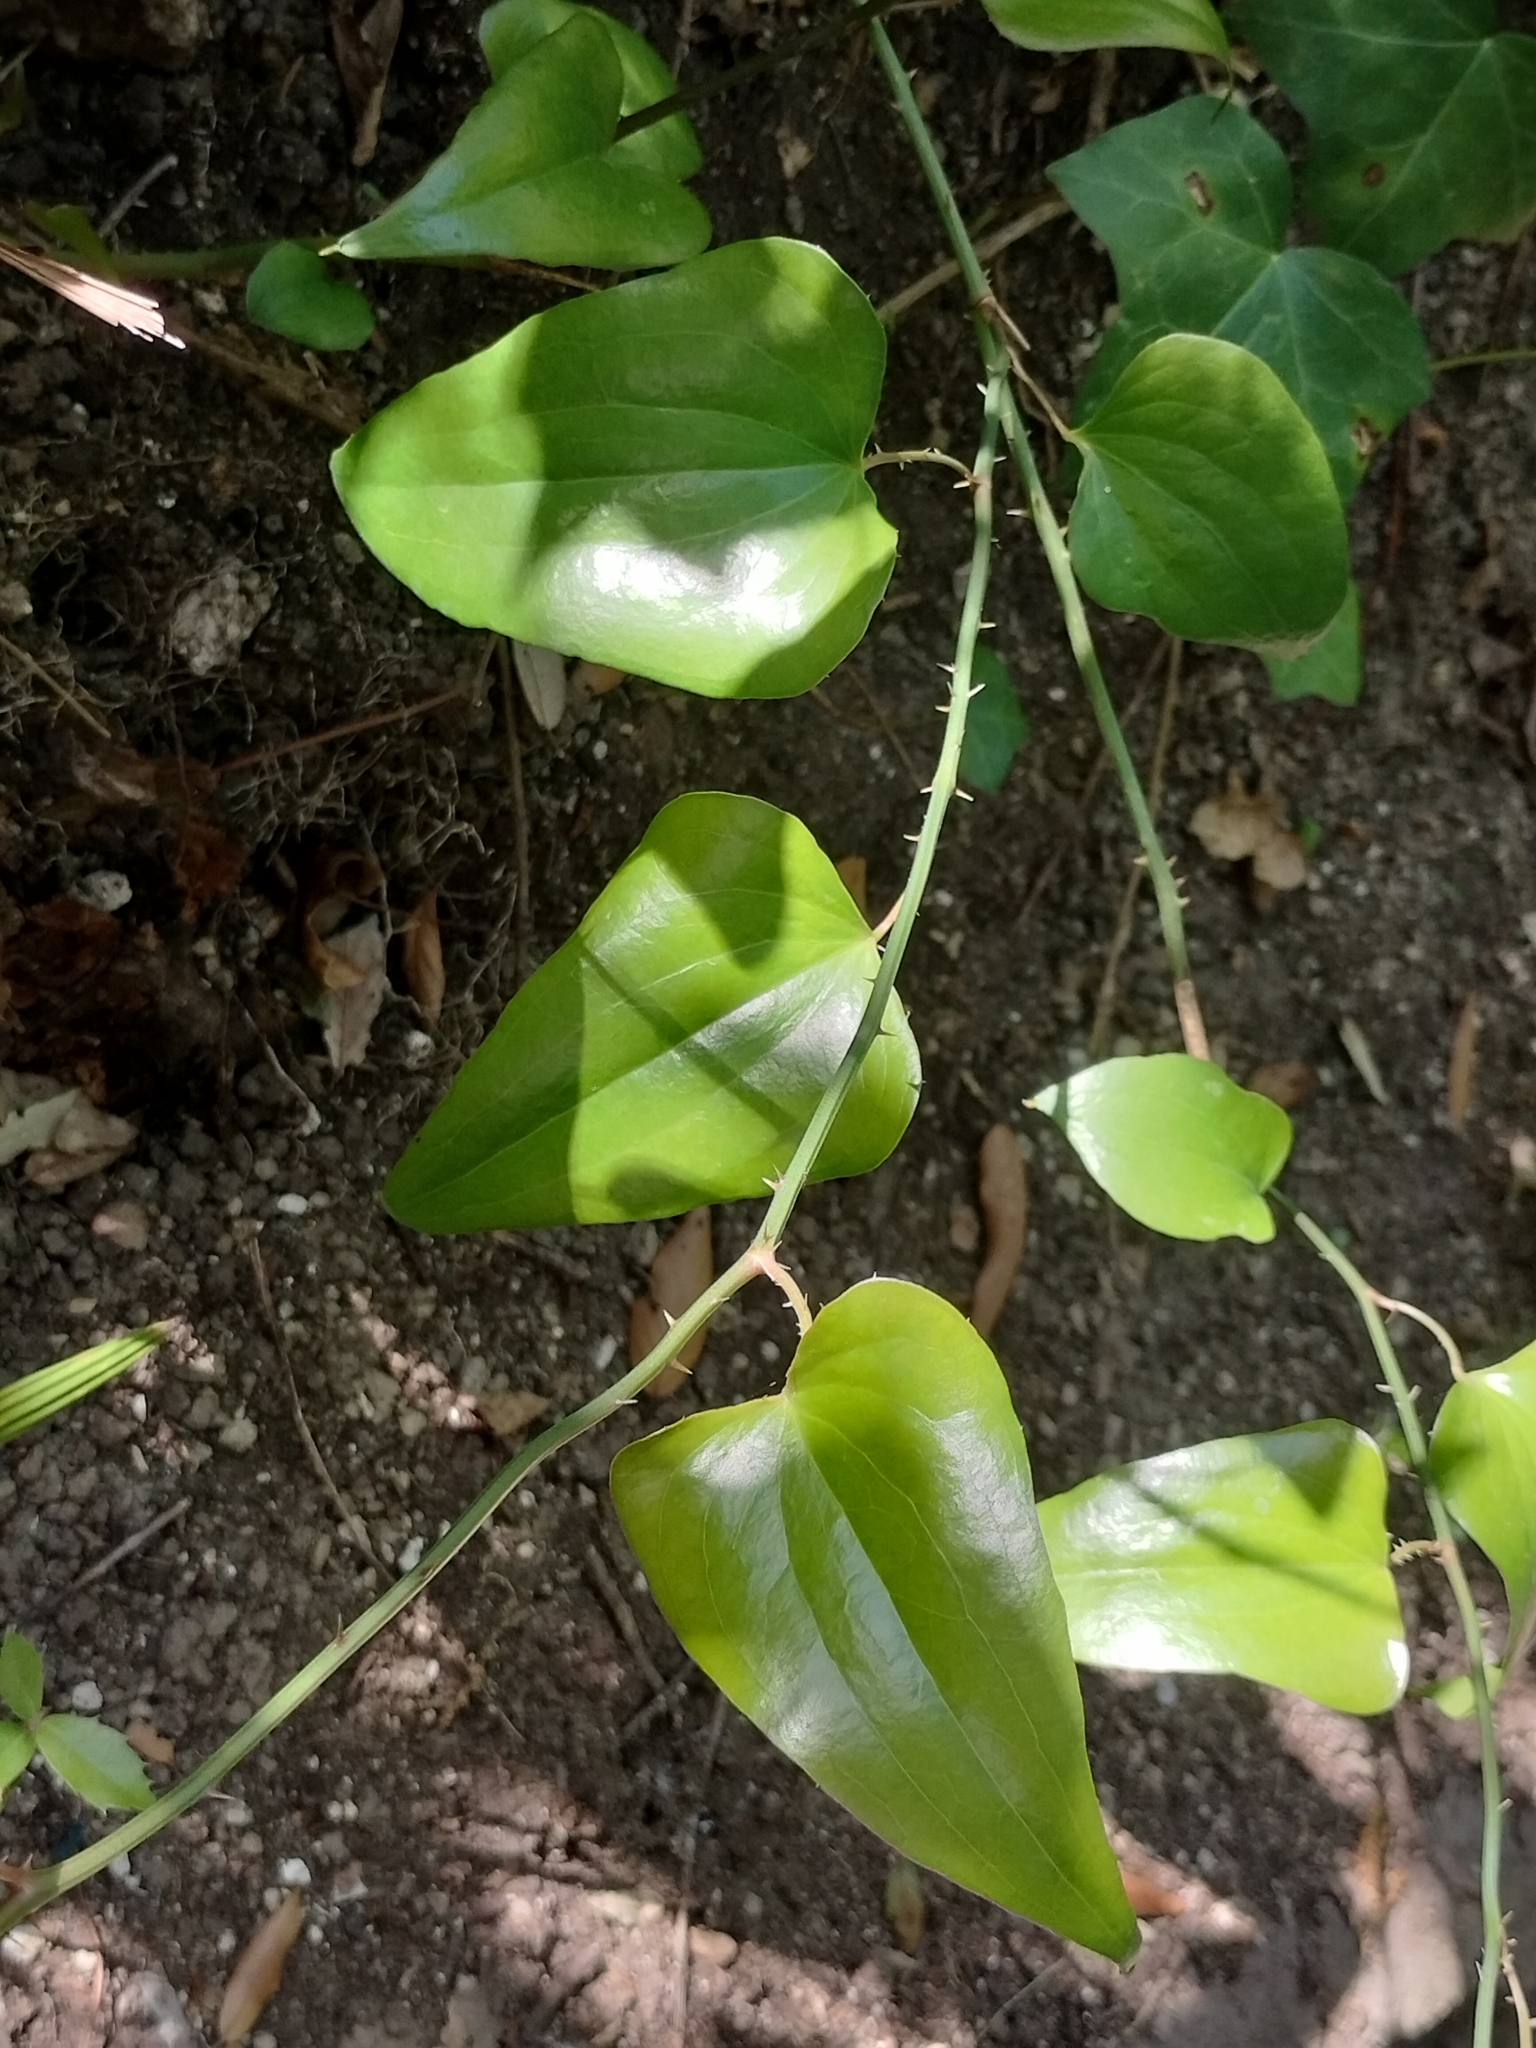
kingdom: Plantae
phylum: Tracheophyta
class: Liliopsida
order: Liliales
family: Smilacaceae
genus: Smilax
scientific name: Smilax aspera
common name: Common smilax
